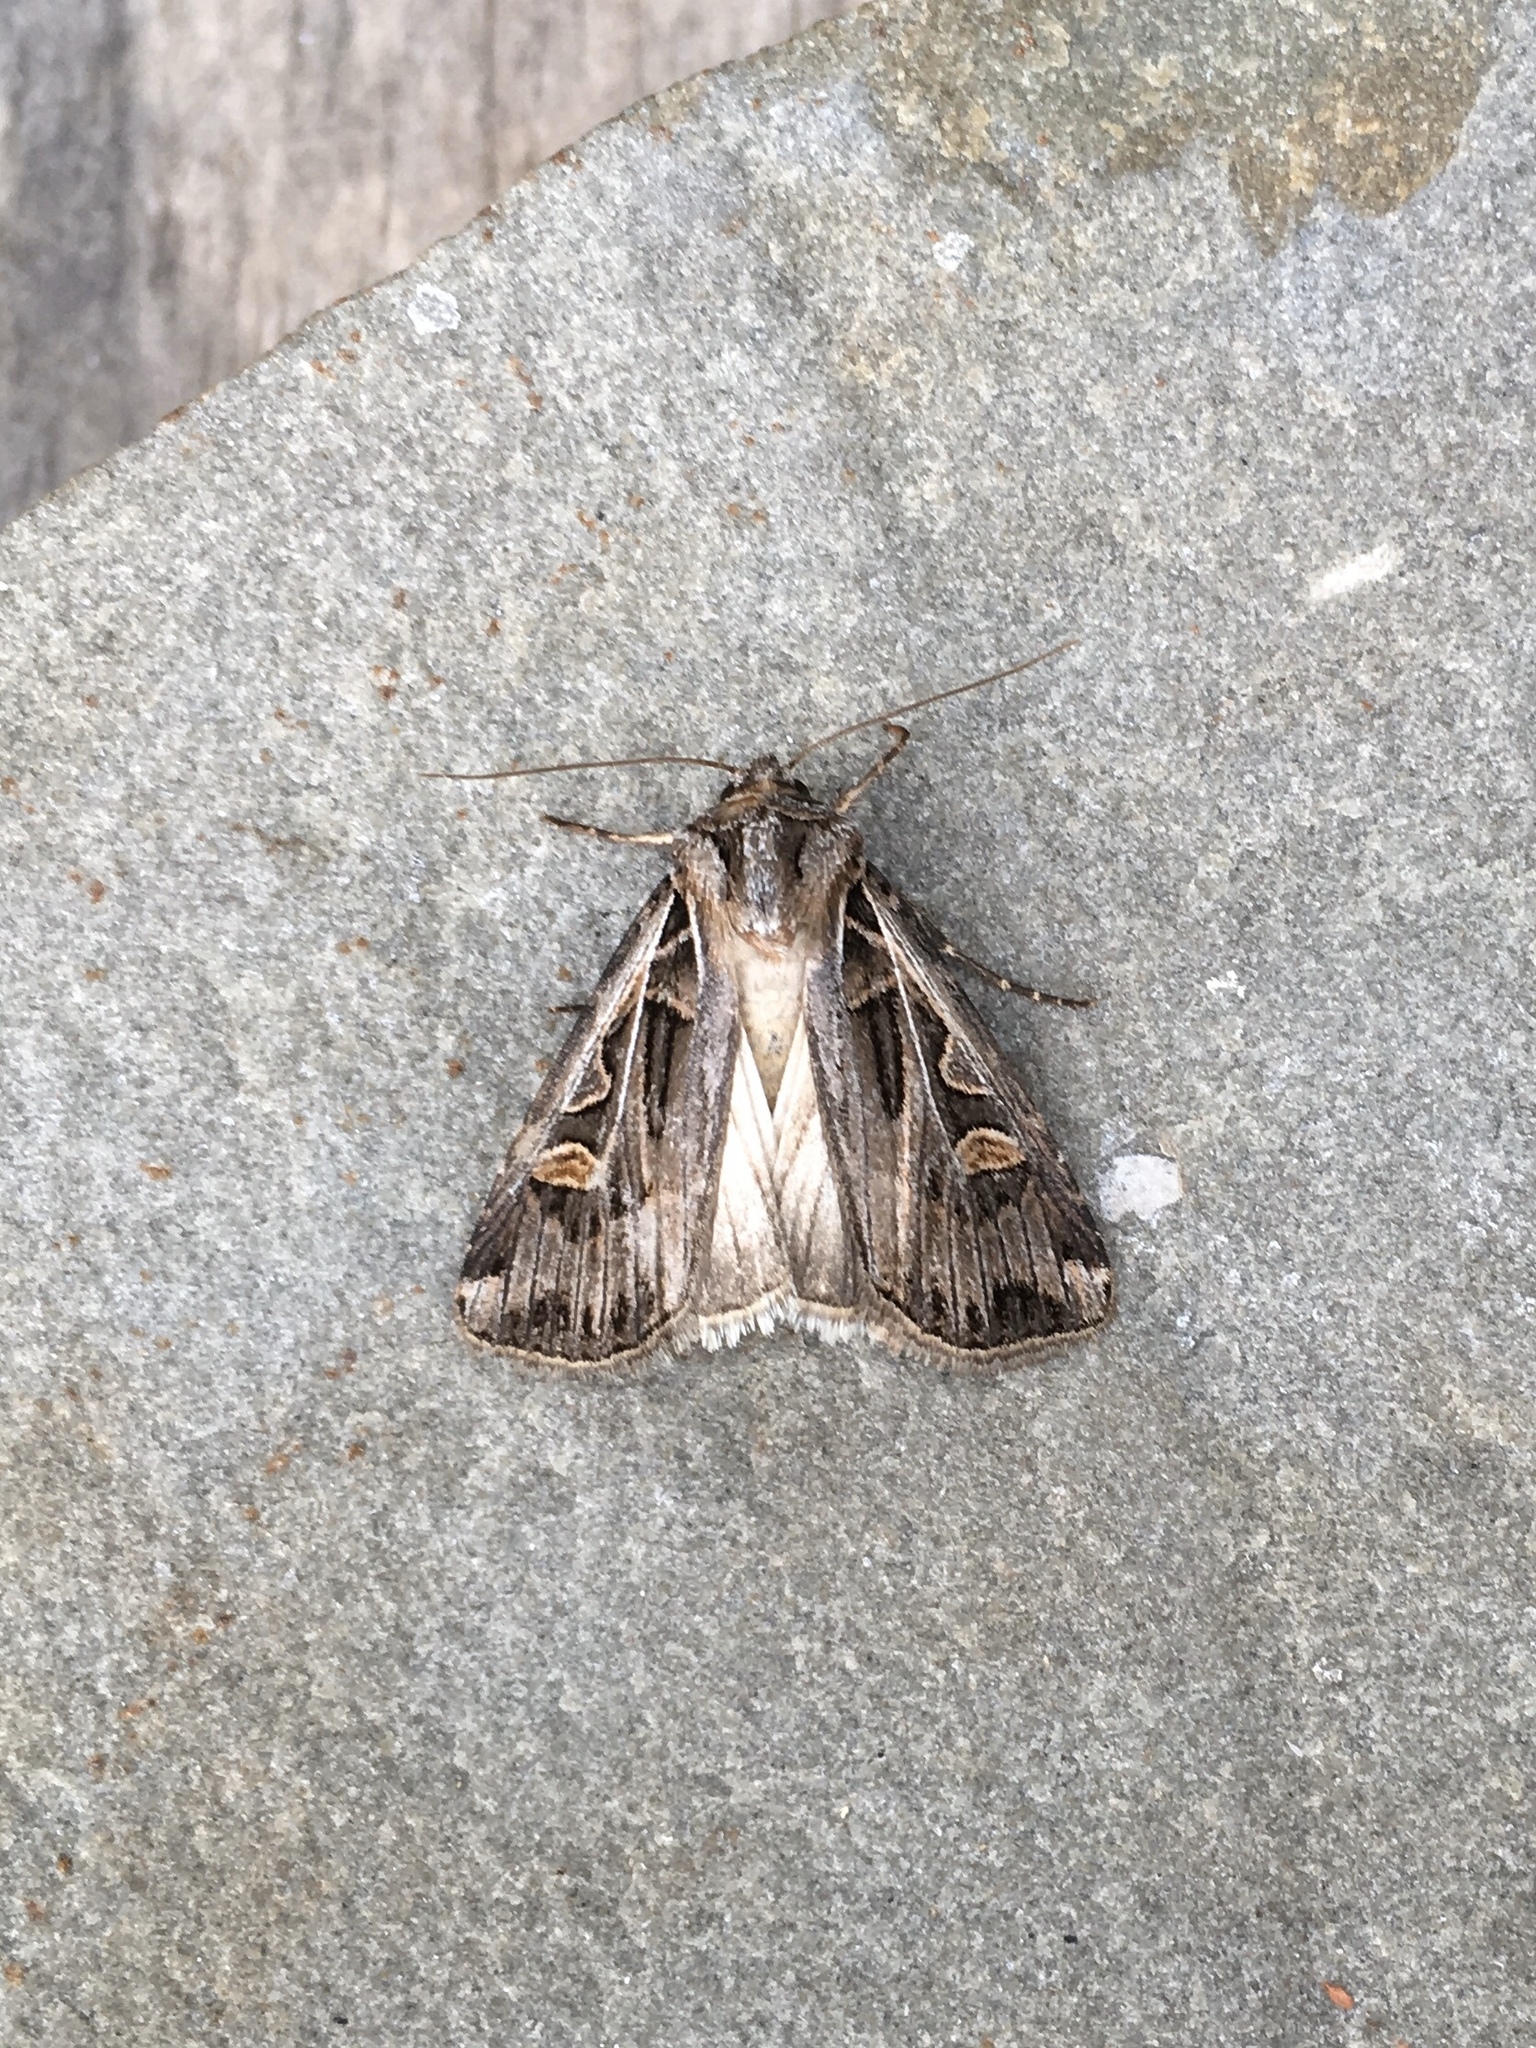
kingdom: Animalia
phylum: Arthropoda
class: Insecta
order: Lepidoptera
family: Noctuidae
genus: Feltia
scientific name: Feltia jaculifera
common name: Dingy cutworm moth
